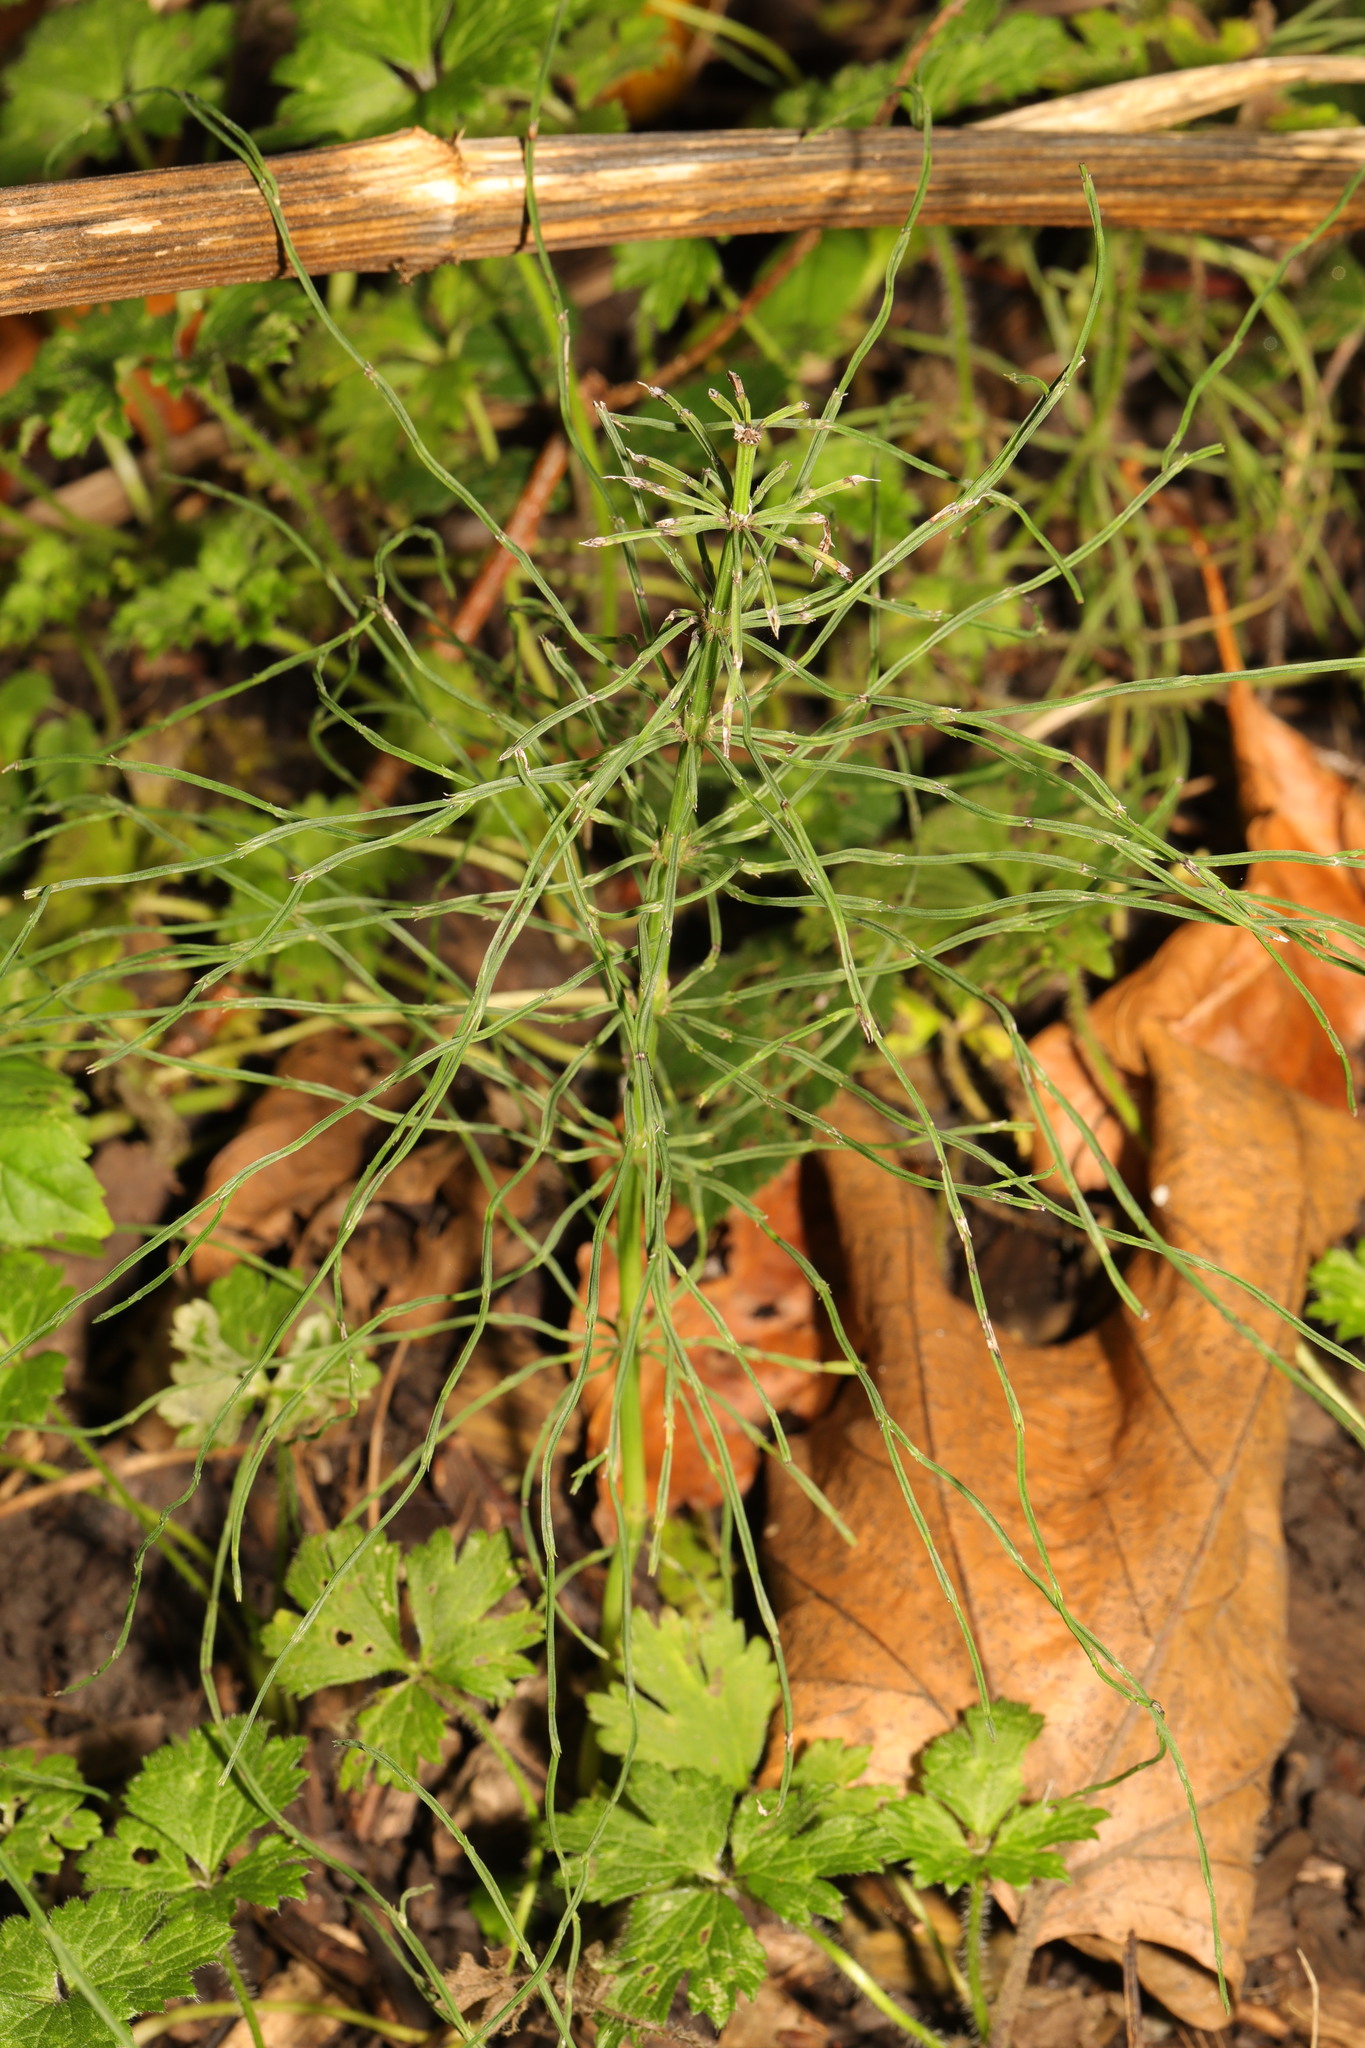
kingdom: Plantae
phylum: Tracheophyta
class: Polypodiopsida
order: Equisetales
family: Equisetaceae
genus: Equisetum
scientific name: Equisetum arvense
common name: Field horsetail
